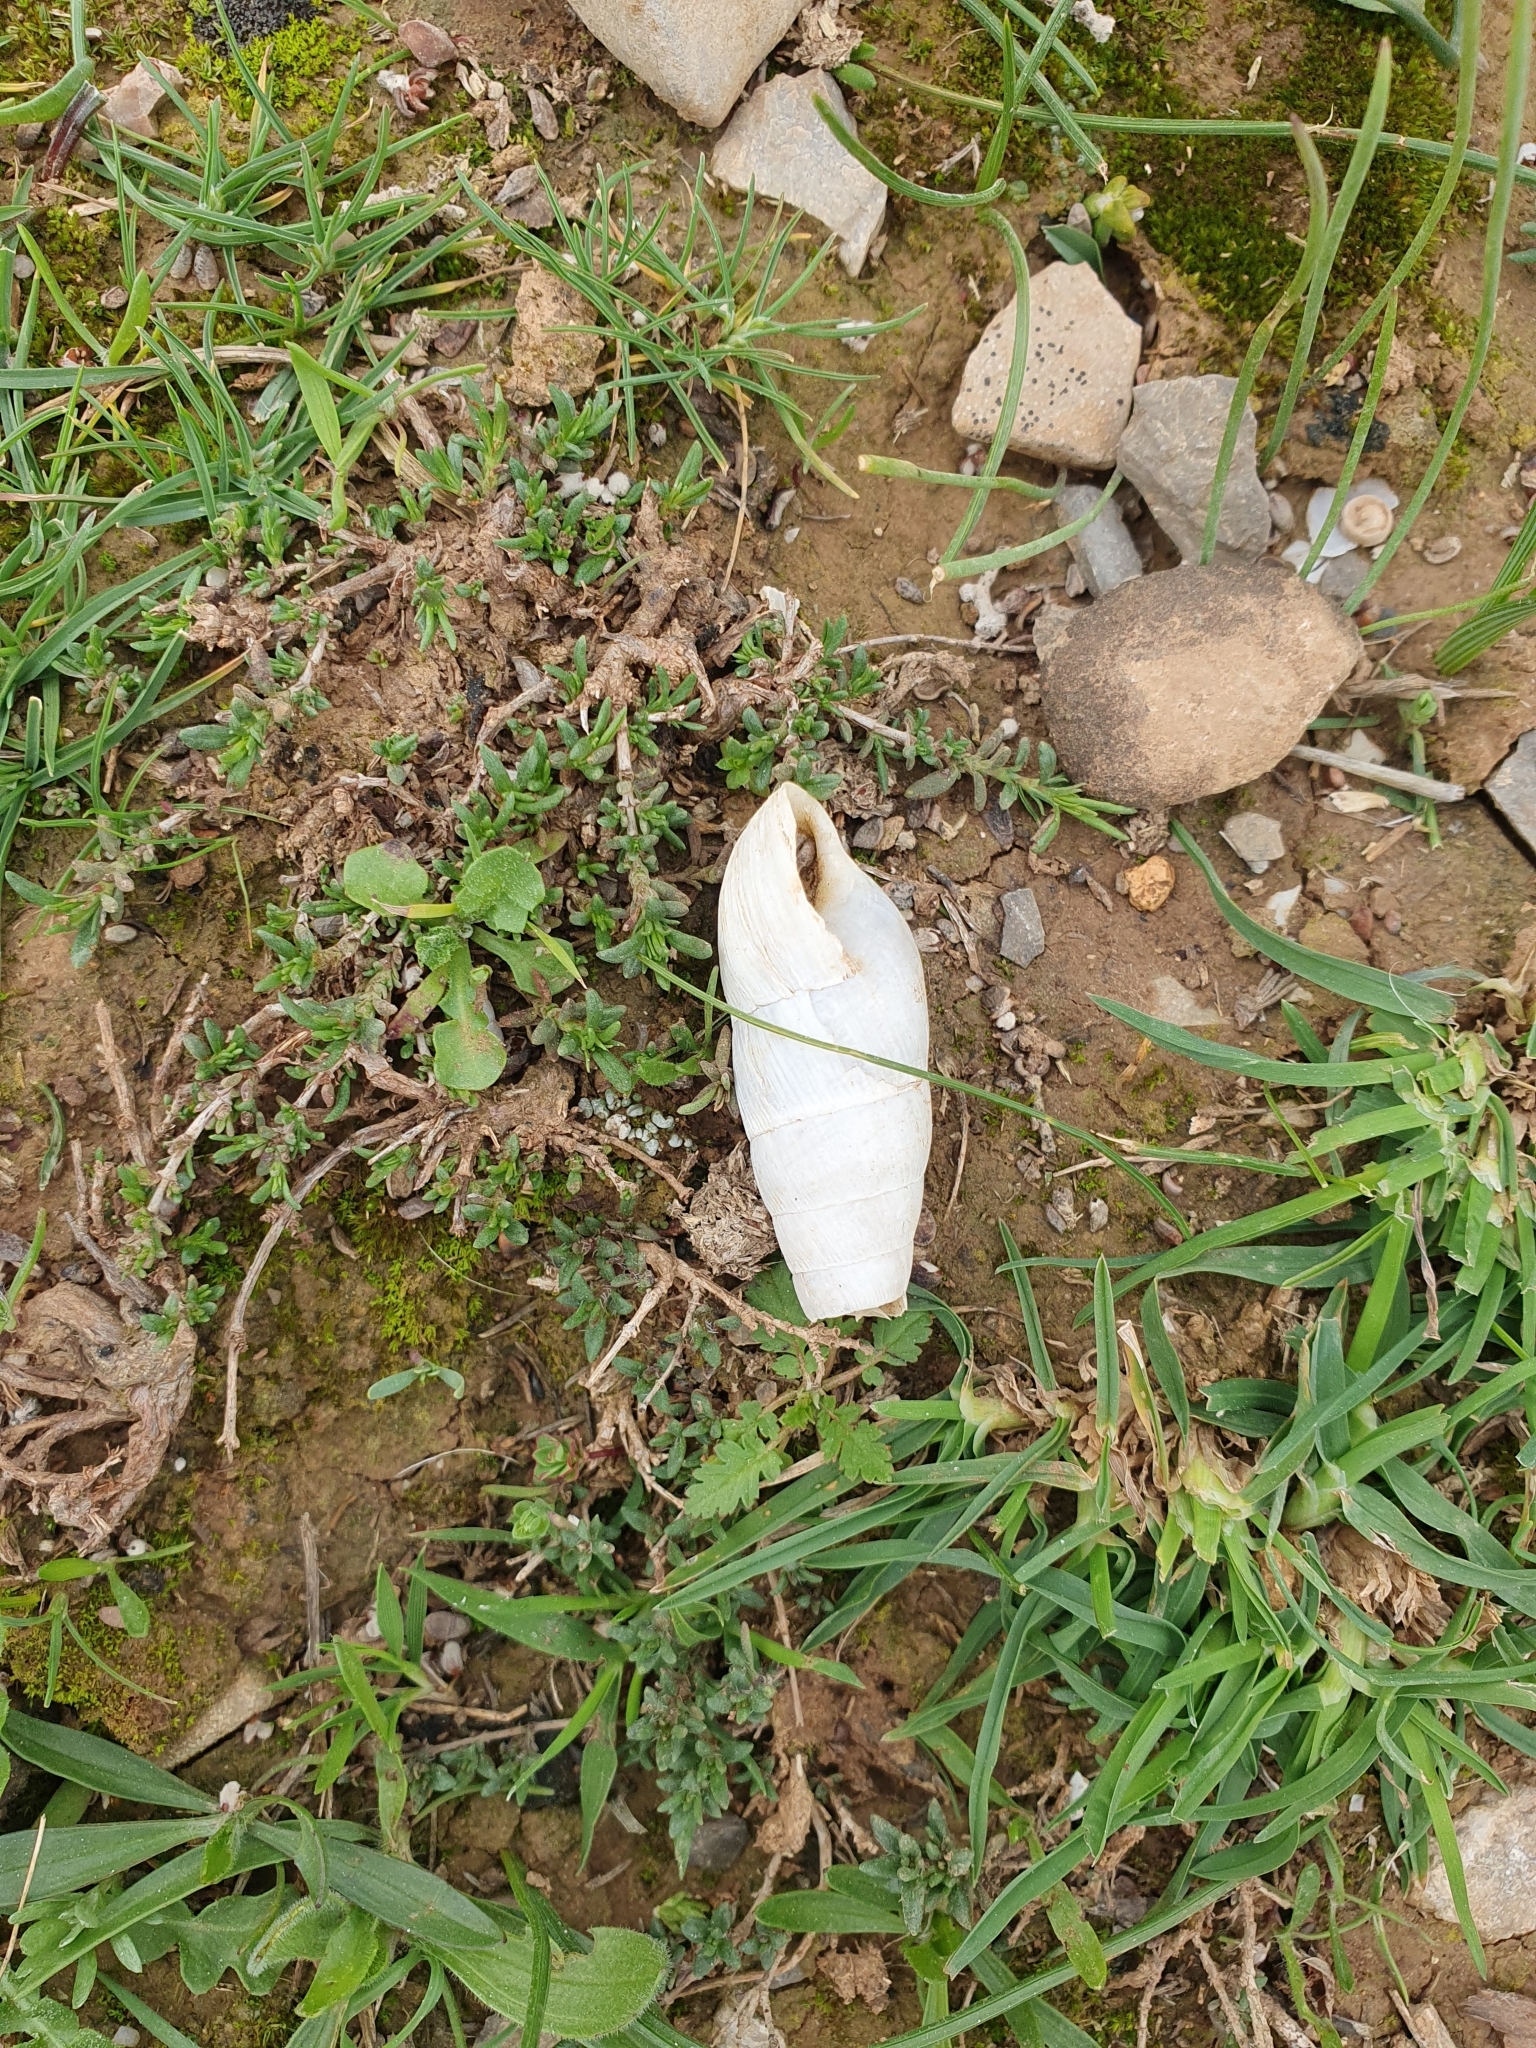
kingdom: Animalia
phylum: Mollusca
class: Gastropoda
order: Stylommatophora
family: Achatinidae
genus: Rumina
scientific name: Rumina decollata
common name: Decollate snail
